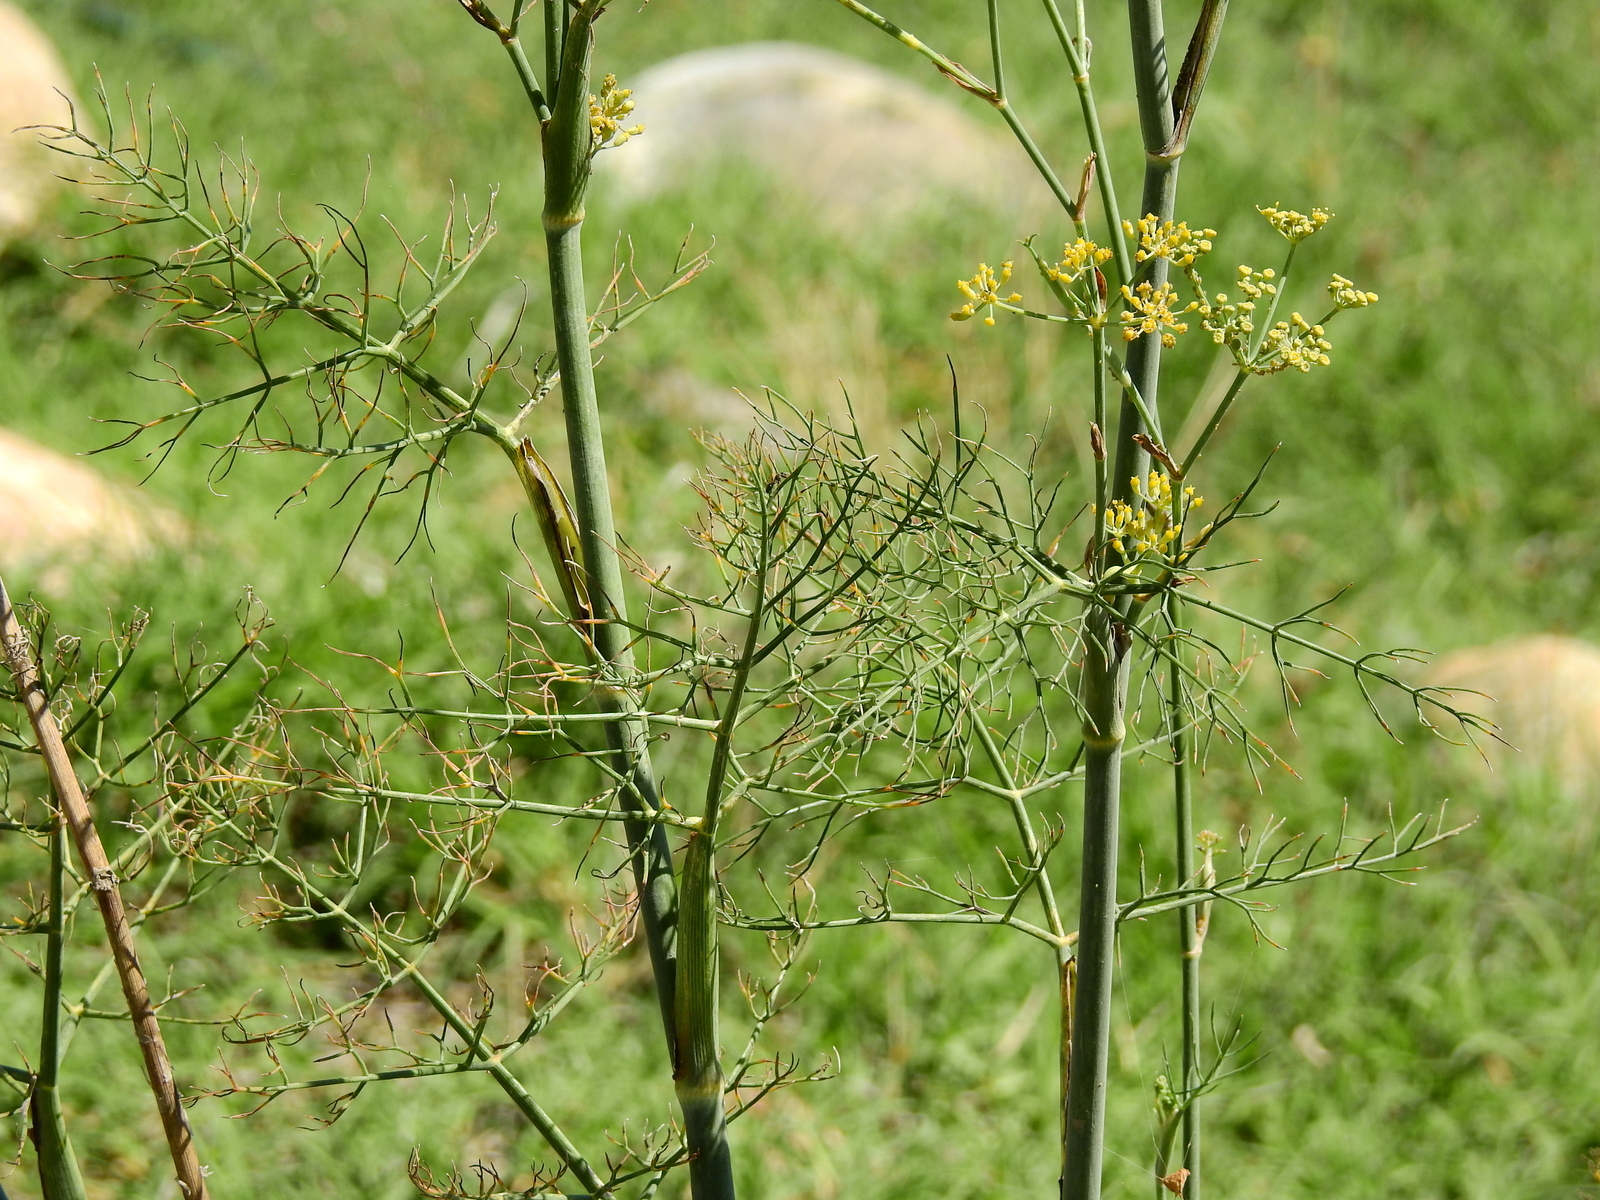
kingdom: Plantae
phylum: Tracheophyta
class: Magnoliopsida
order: Apiales
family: Apiaceae
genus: Foeniculum
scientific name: Foeniculum vulgare
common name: Fennel
